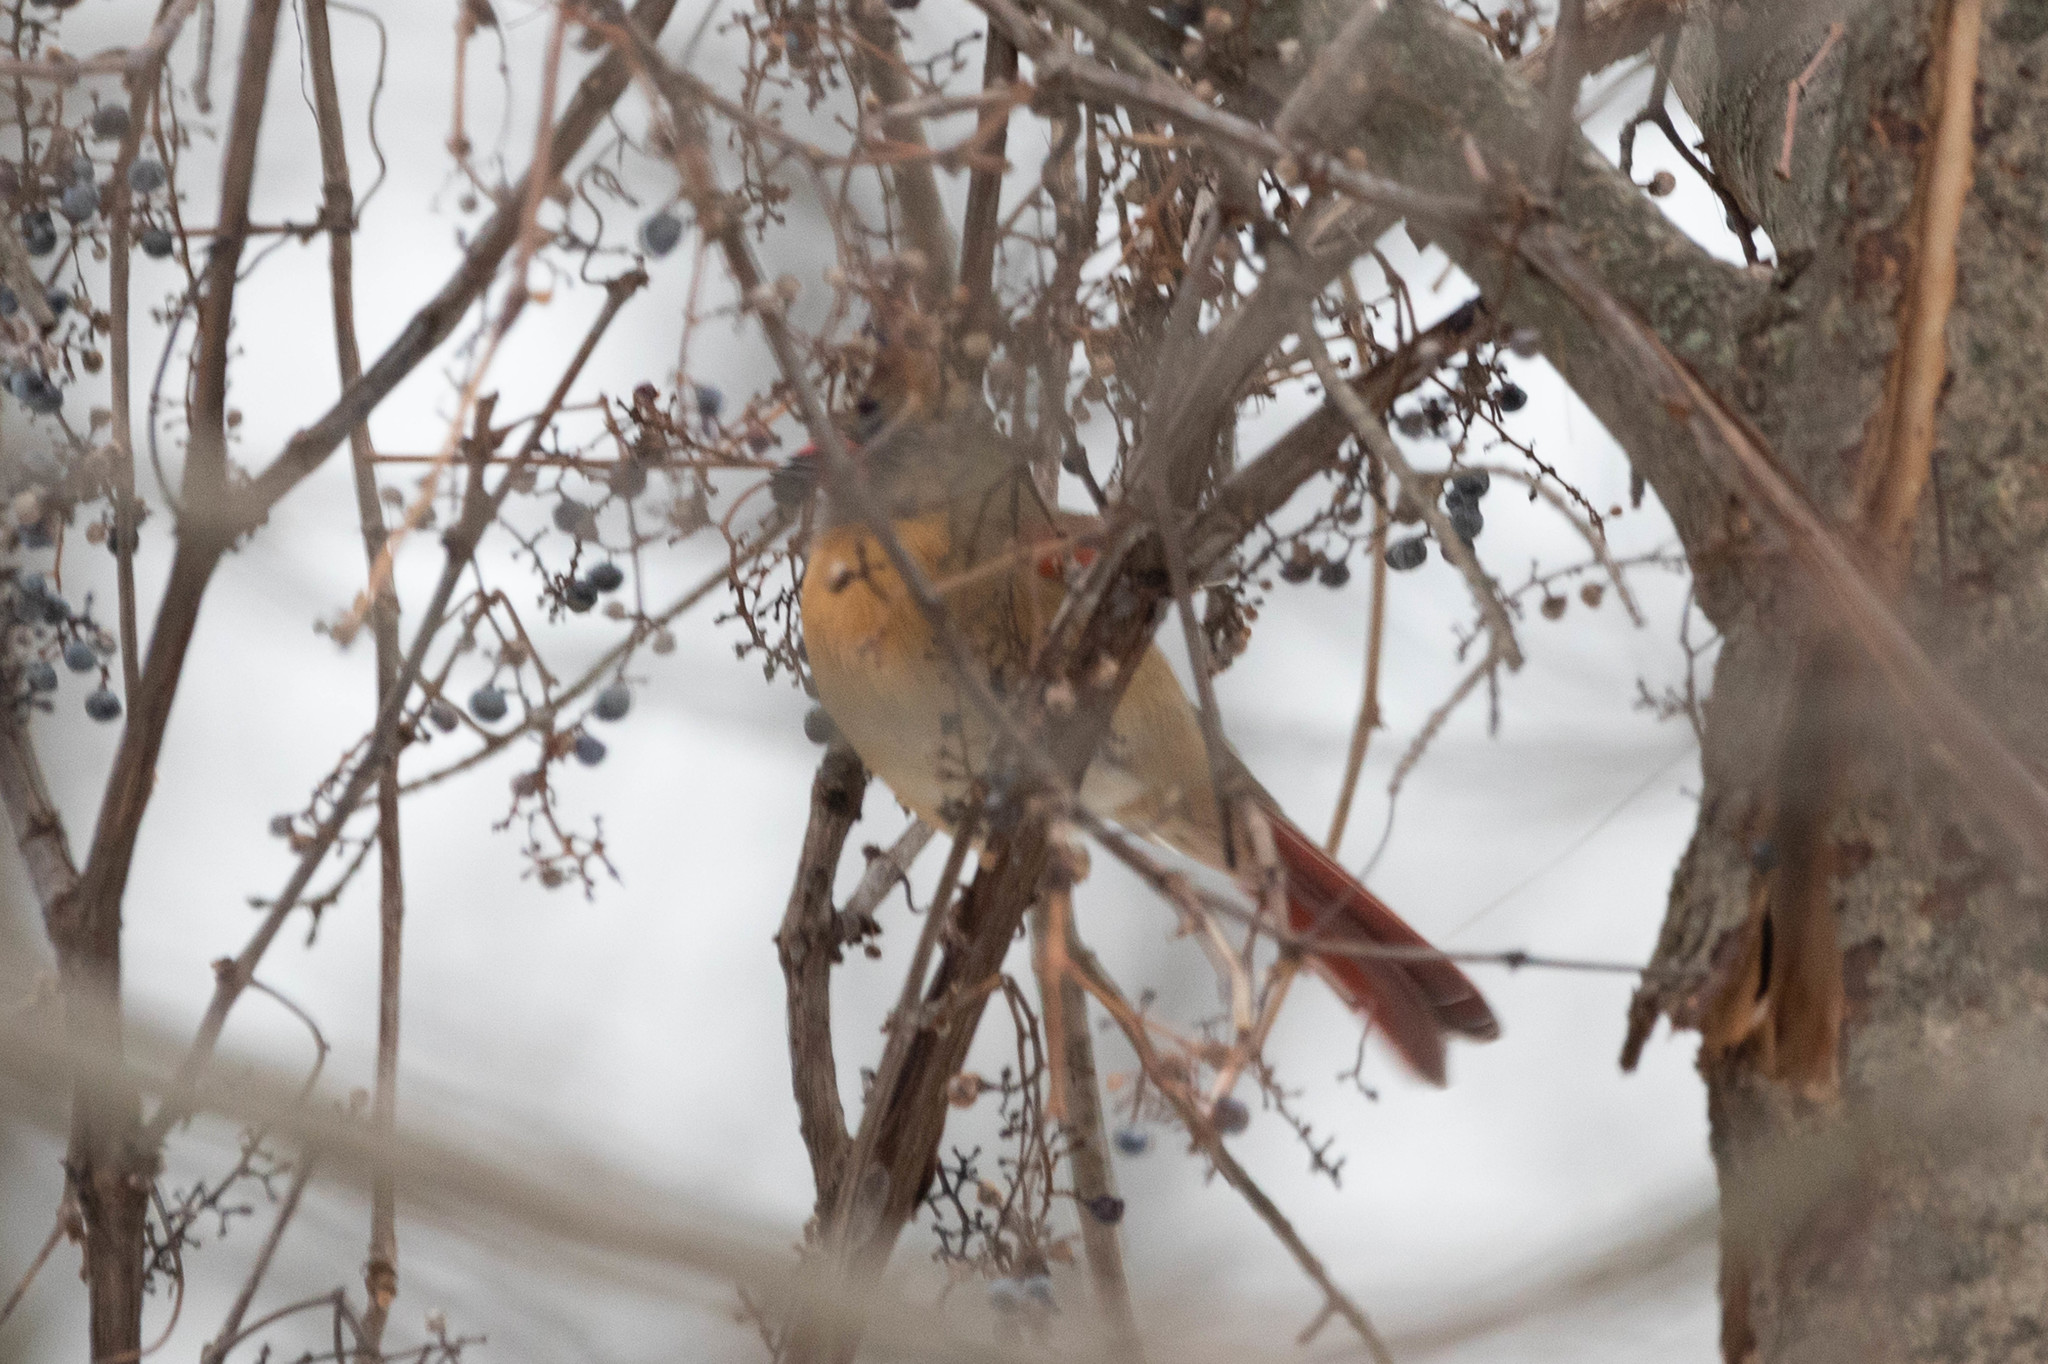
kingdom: Animalia
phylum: Chordata
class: Aves
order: Passeriformes
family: Cardinalidae
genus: Cardinalis
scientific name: Cardinalis cardinalis
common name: Northern cardinal
